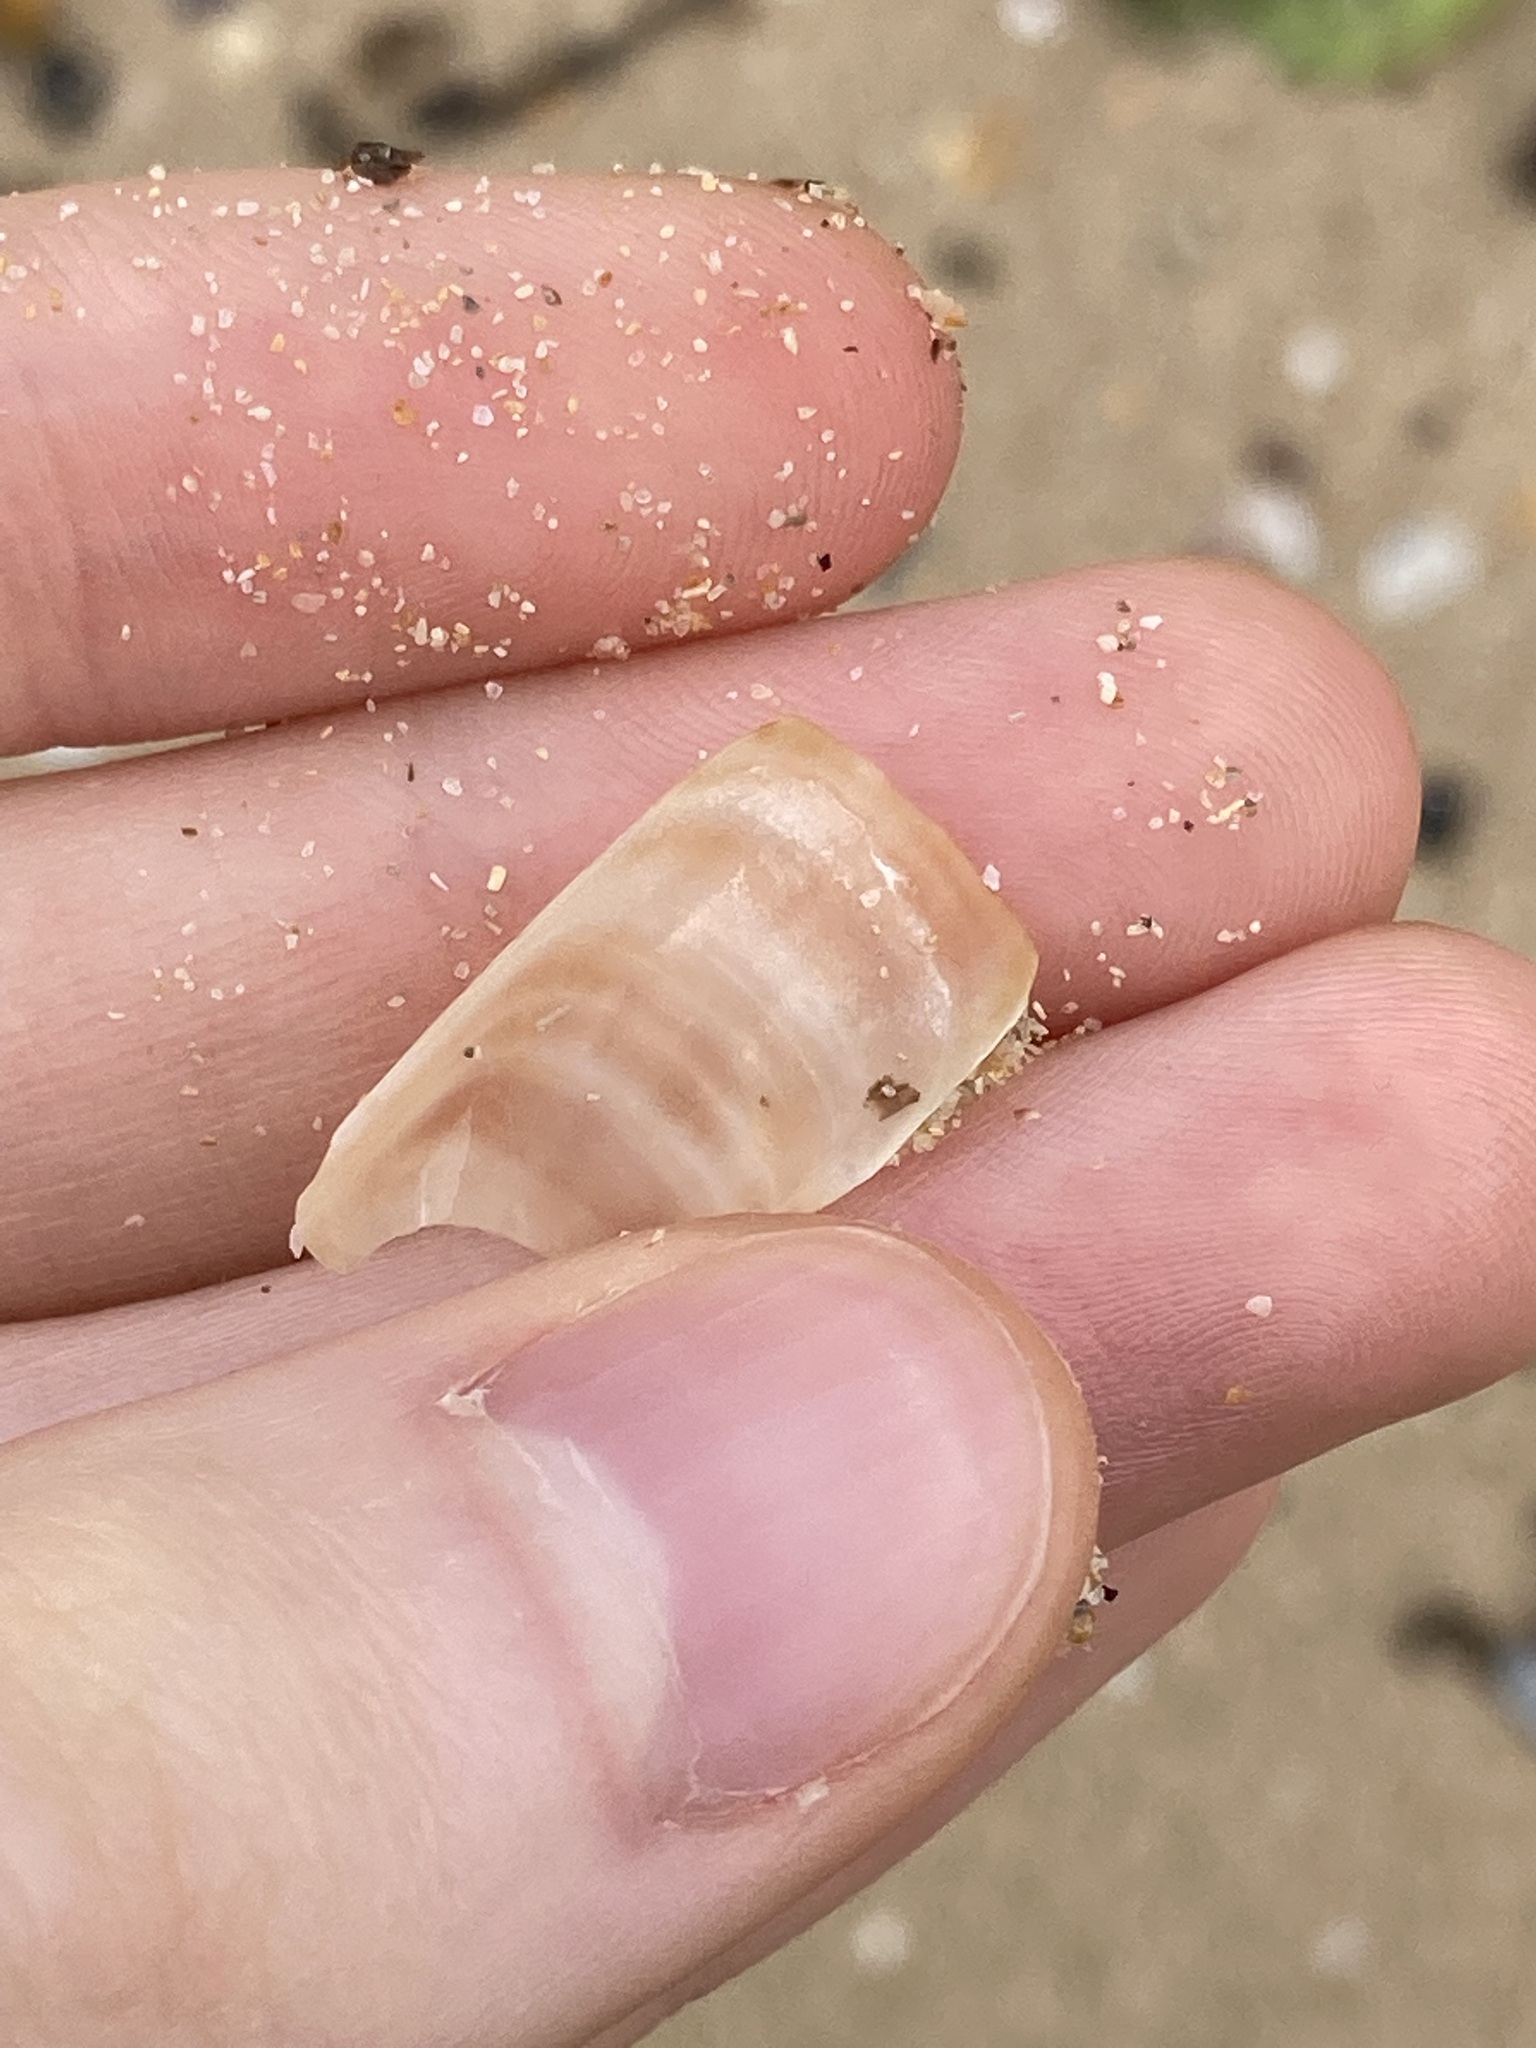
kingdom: Animalia
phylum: Mollusca
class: Bivalvia
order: Adapedonta
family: Solenidae
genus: Solen
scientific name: Solen vaginoides
